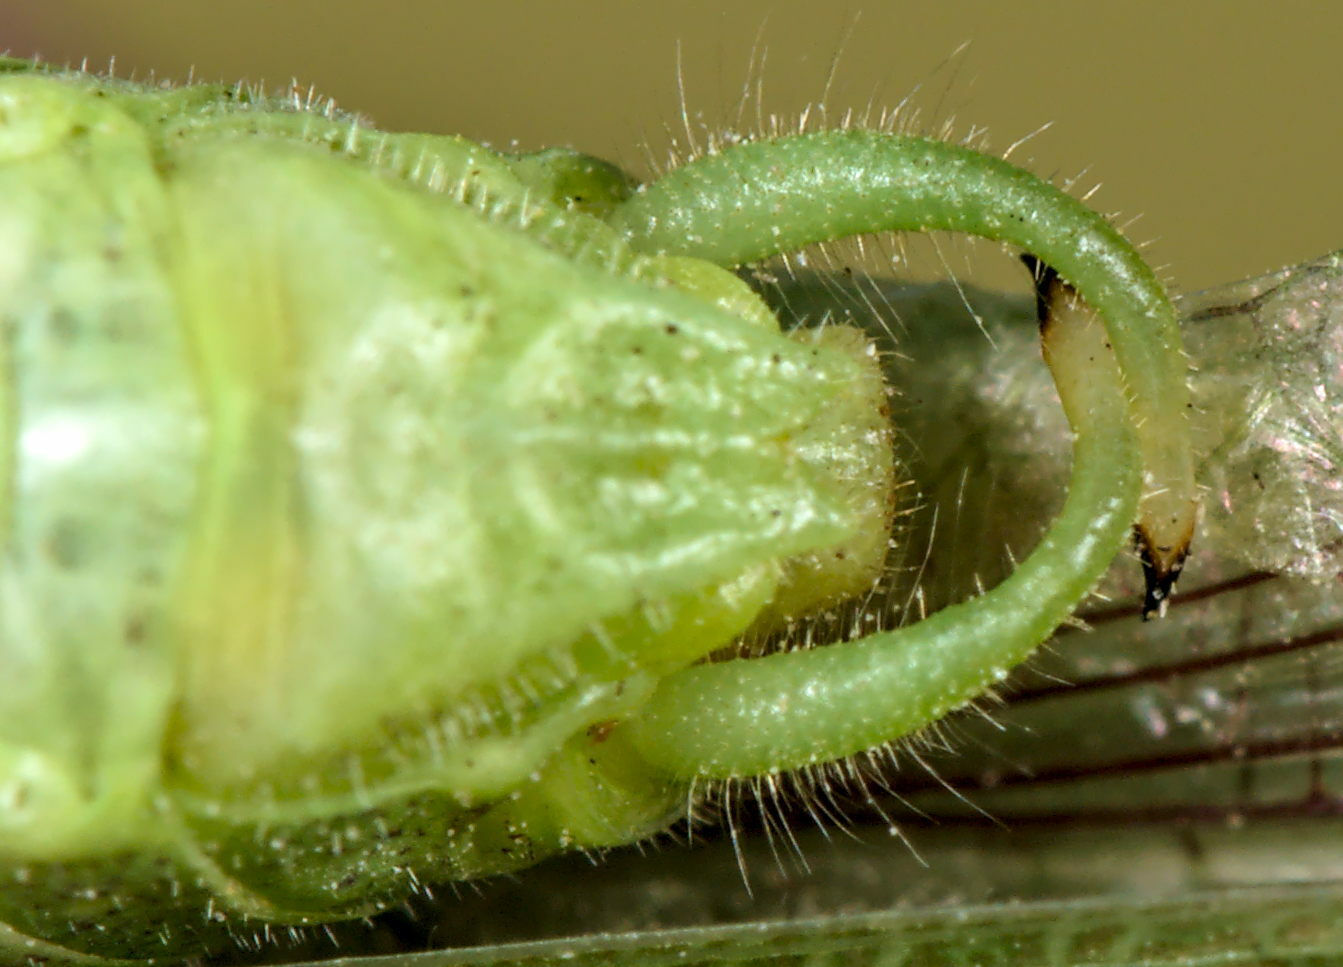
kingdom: Animalia
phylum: Arthropoda
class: Insecta
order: Orthoptera
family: Tettigoniidae
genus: Phaneroptera
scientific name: Phaneroptera nana
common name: Southern sickle bush-cricket
